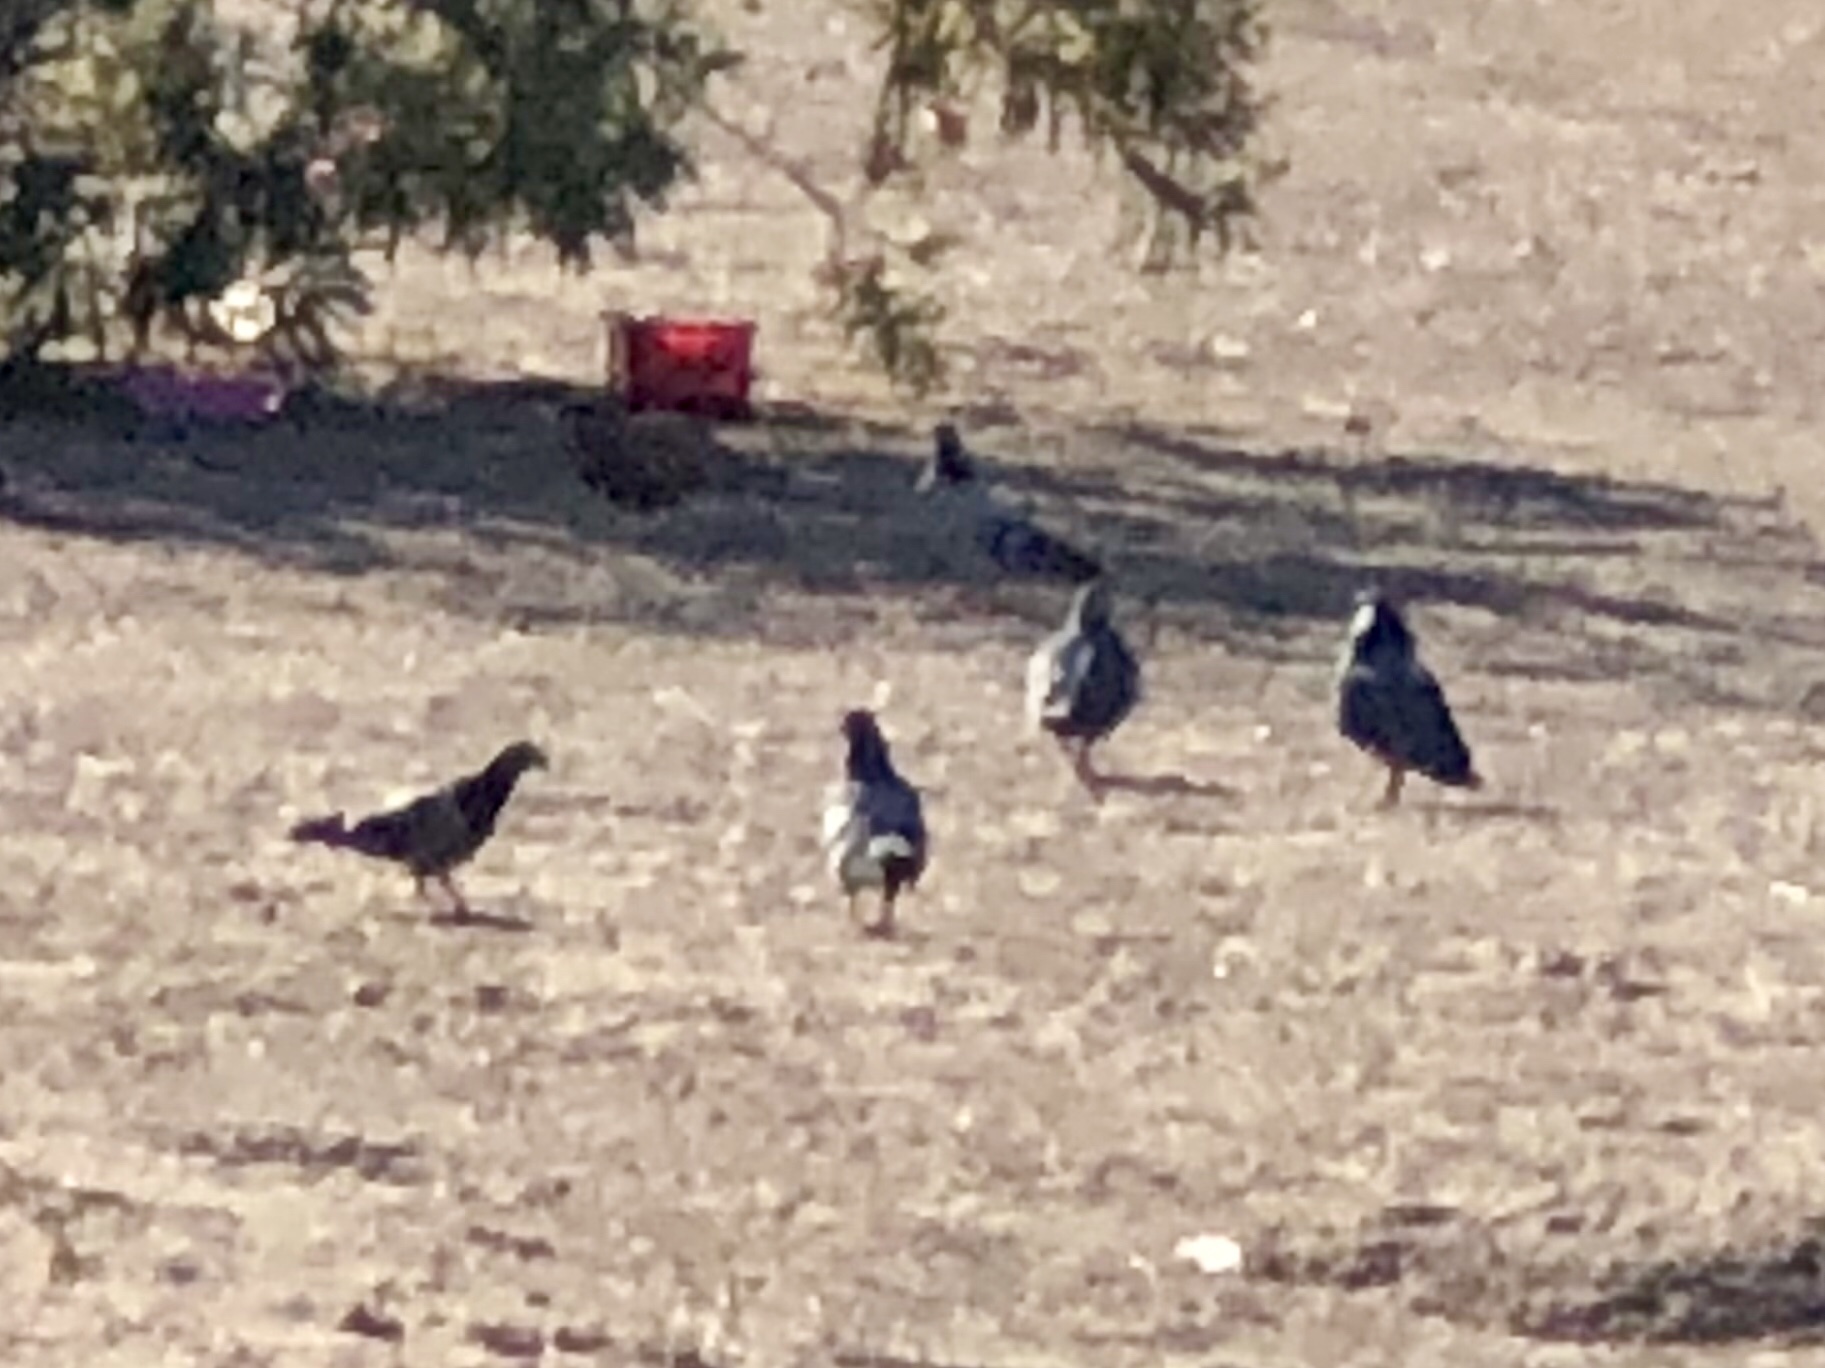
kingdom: Animalia
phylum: Chordata
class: Aves
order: Columbiformes
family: Columbidae
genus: Columba
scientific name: Columba livia
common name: Rock pigeon
